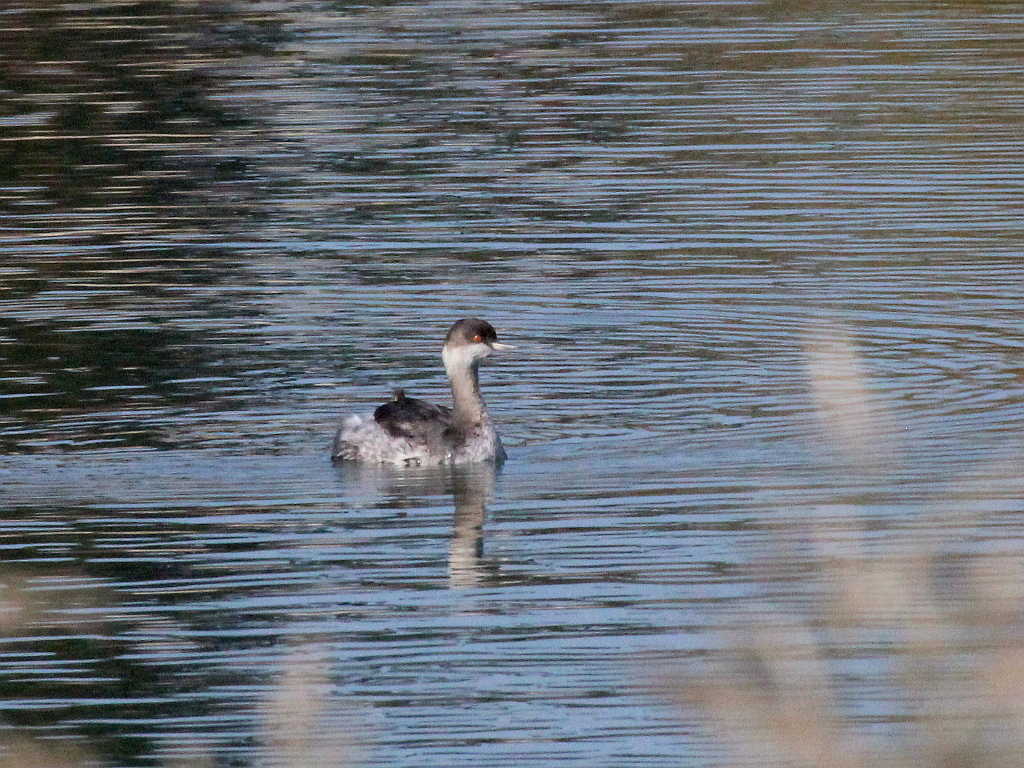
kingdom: Animalia
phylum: Chordata
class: Aves
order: Podicipediformes
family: Podicipedidae
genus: Podiceps
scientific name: Podiceps nigricollis
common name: Black-necked grebe
